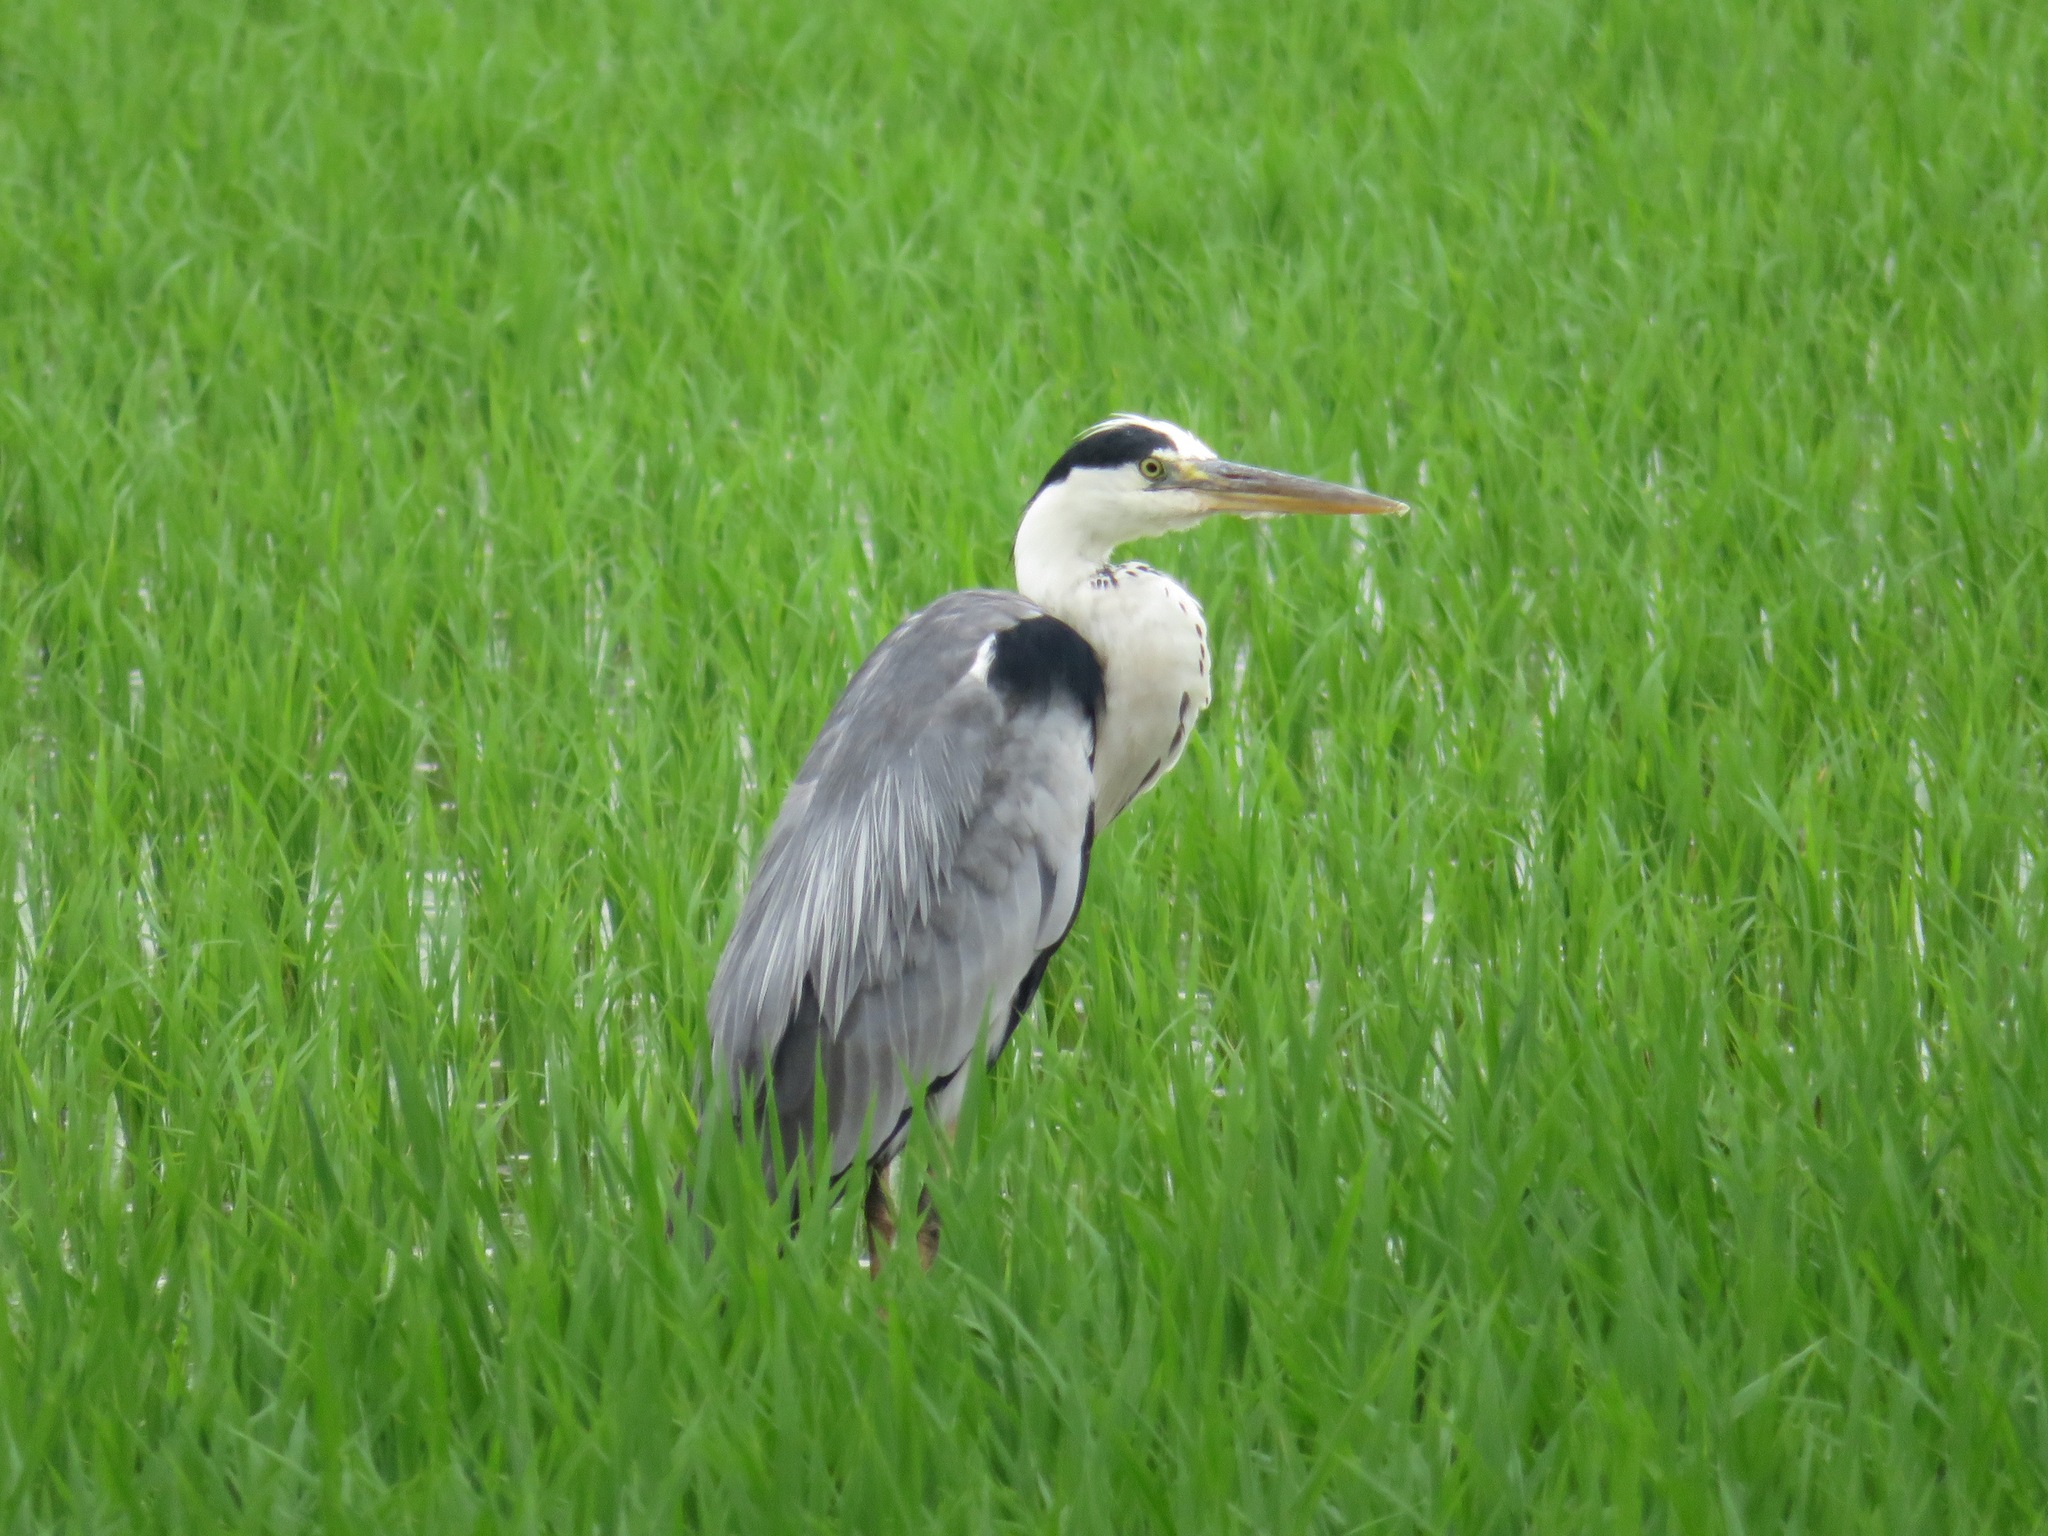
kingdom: Animalia
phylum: Chordata
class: Aves
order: Pelecaniformes
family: Ardeidae
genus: Ardea
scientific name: Ardea cinerea
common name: Grey heron
